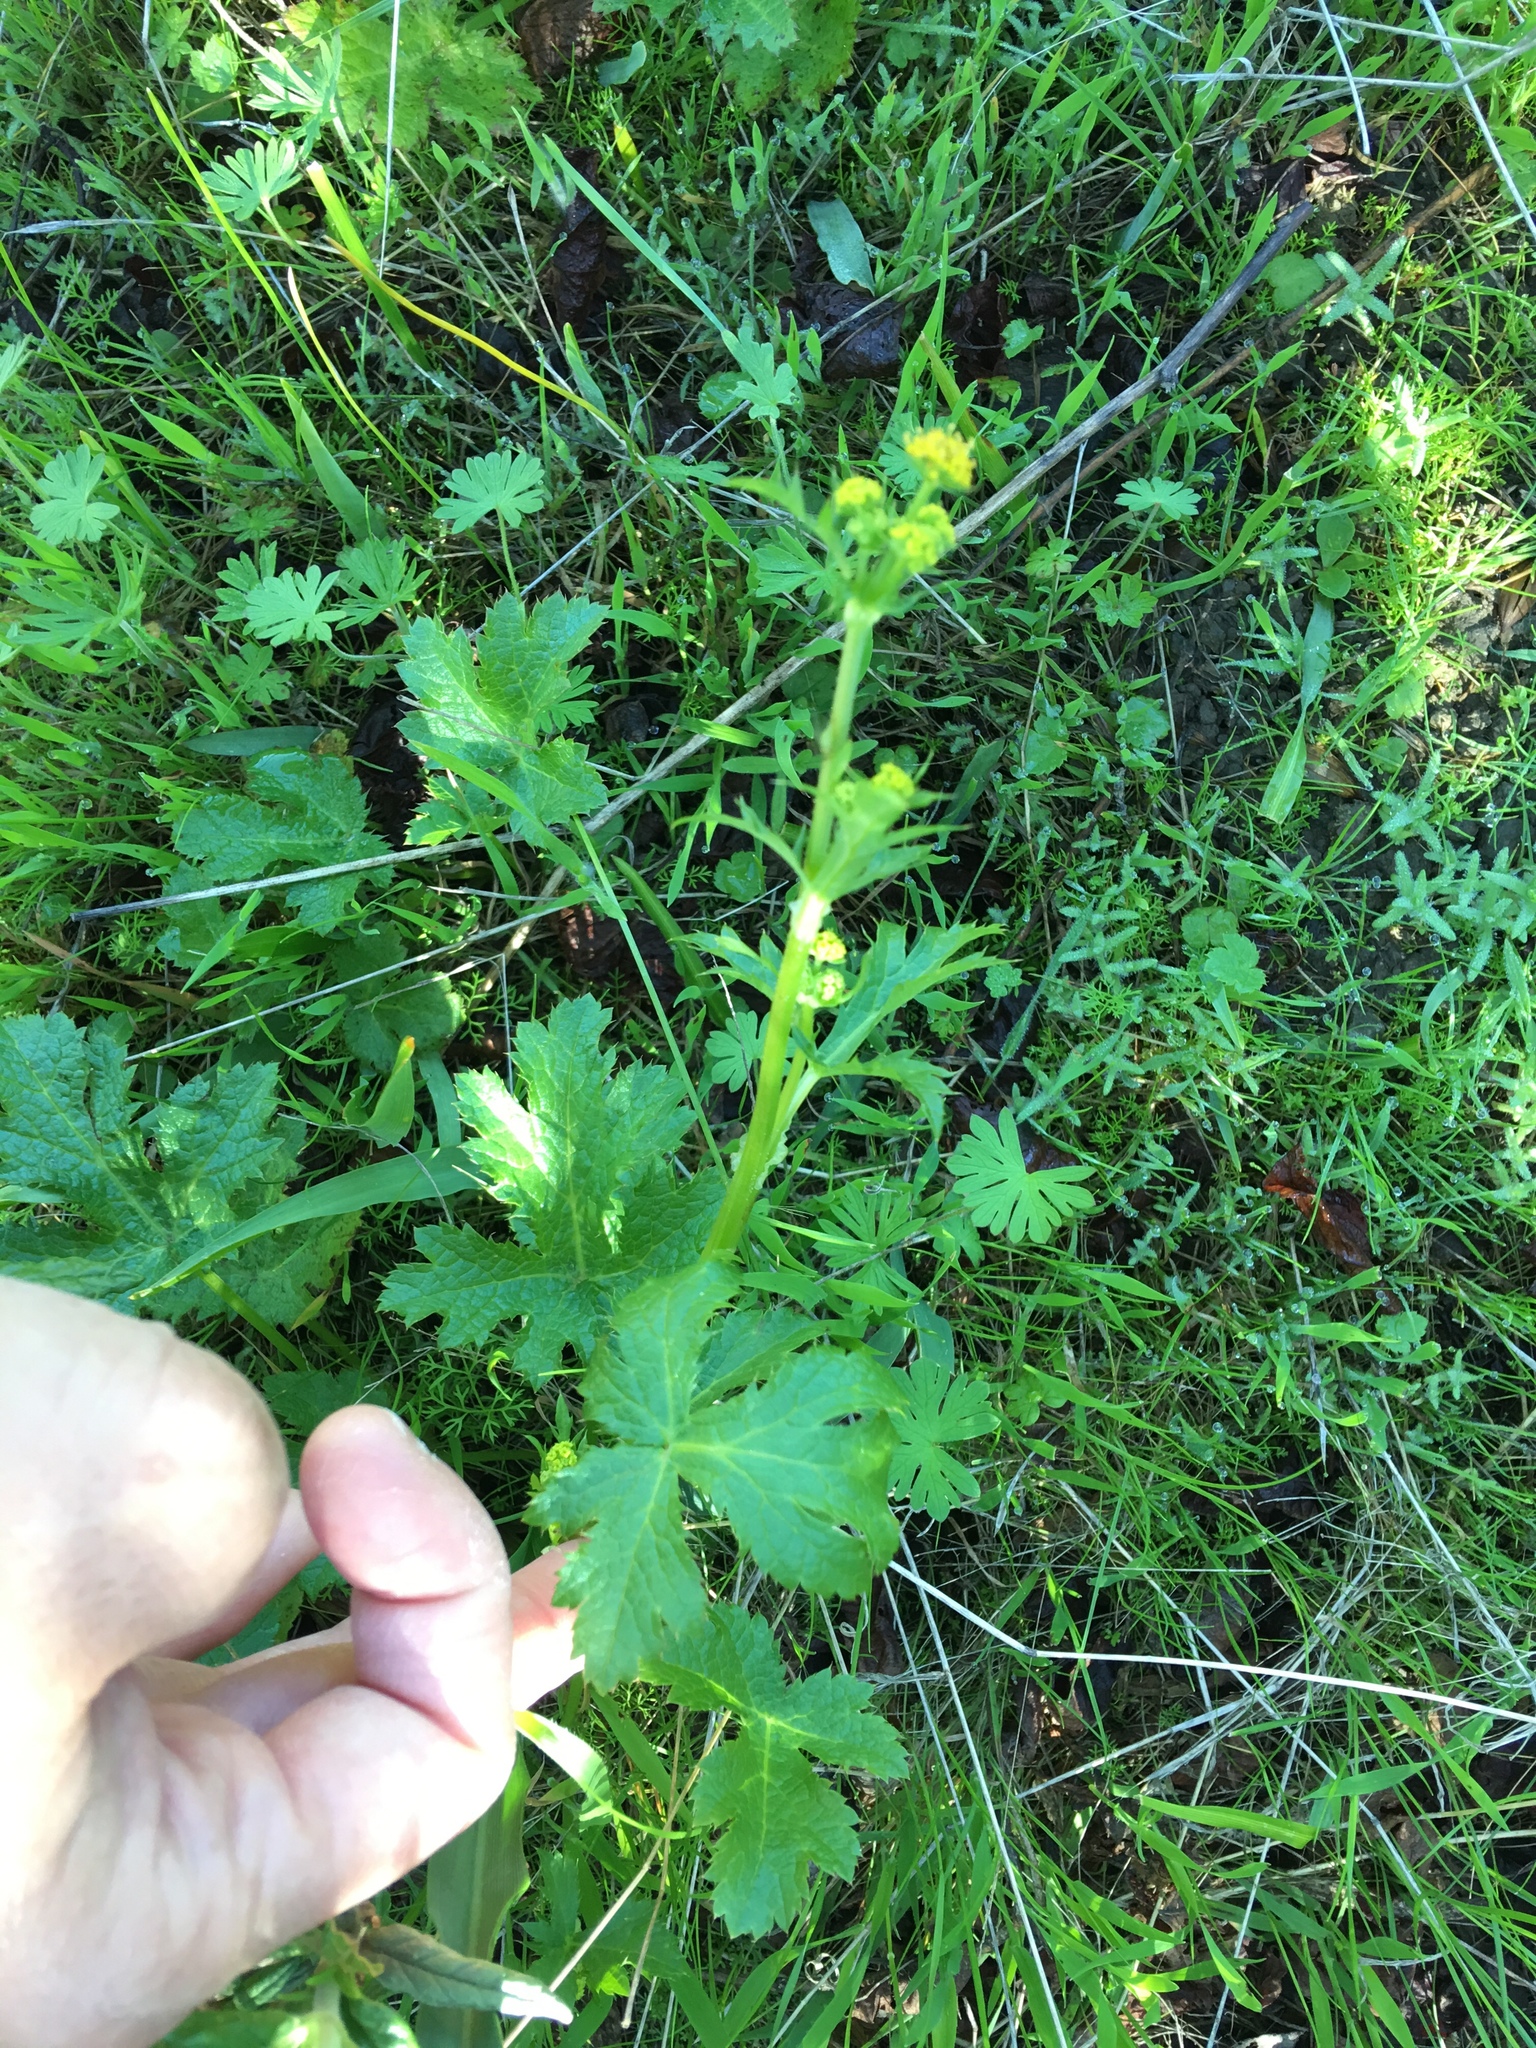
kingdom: Plantae
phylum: Tracheophyta
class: Magnoliopsida
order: Apiales
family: Apiaceae
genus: Sanicula
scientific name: Sanicula crassicaulis
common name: Western snakeroot
